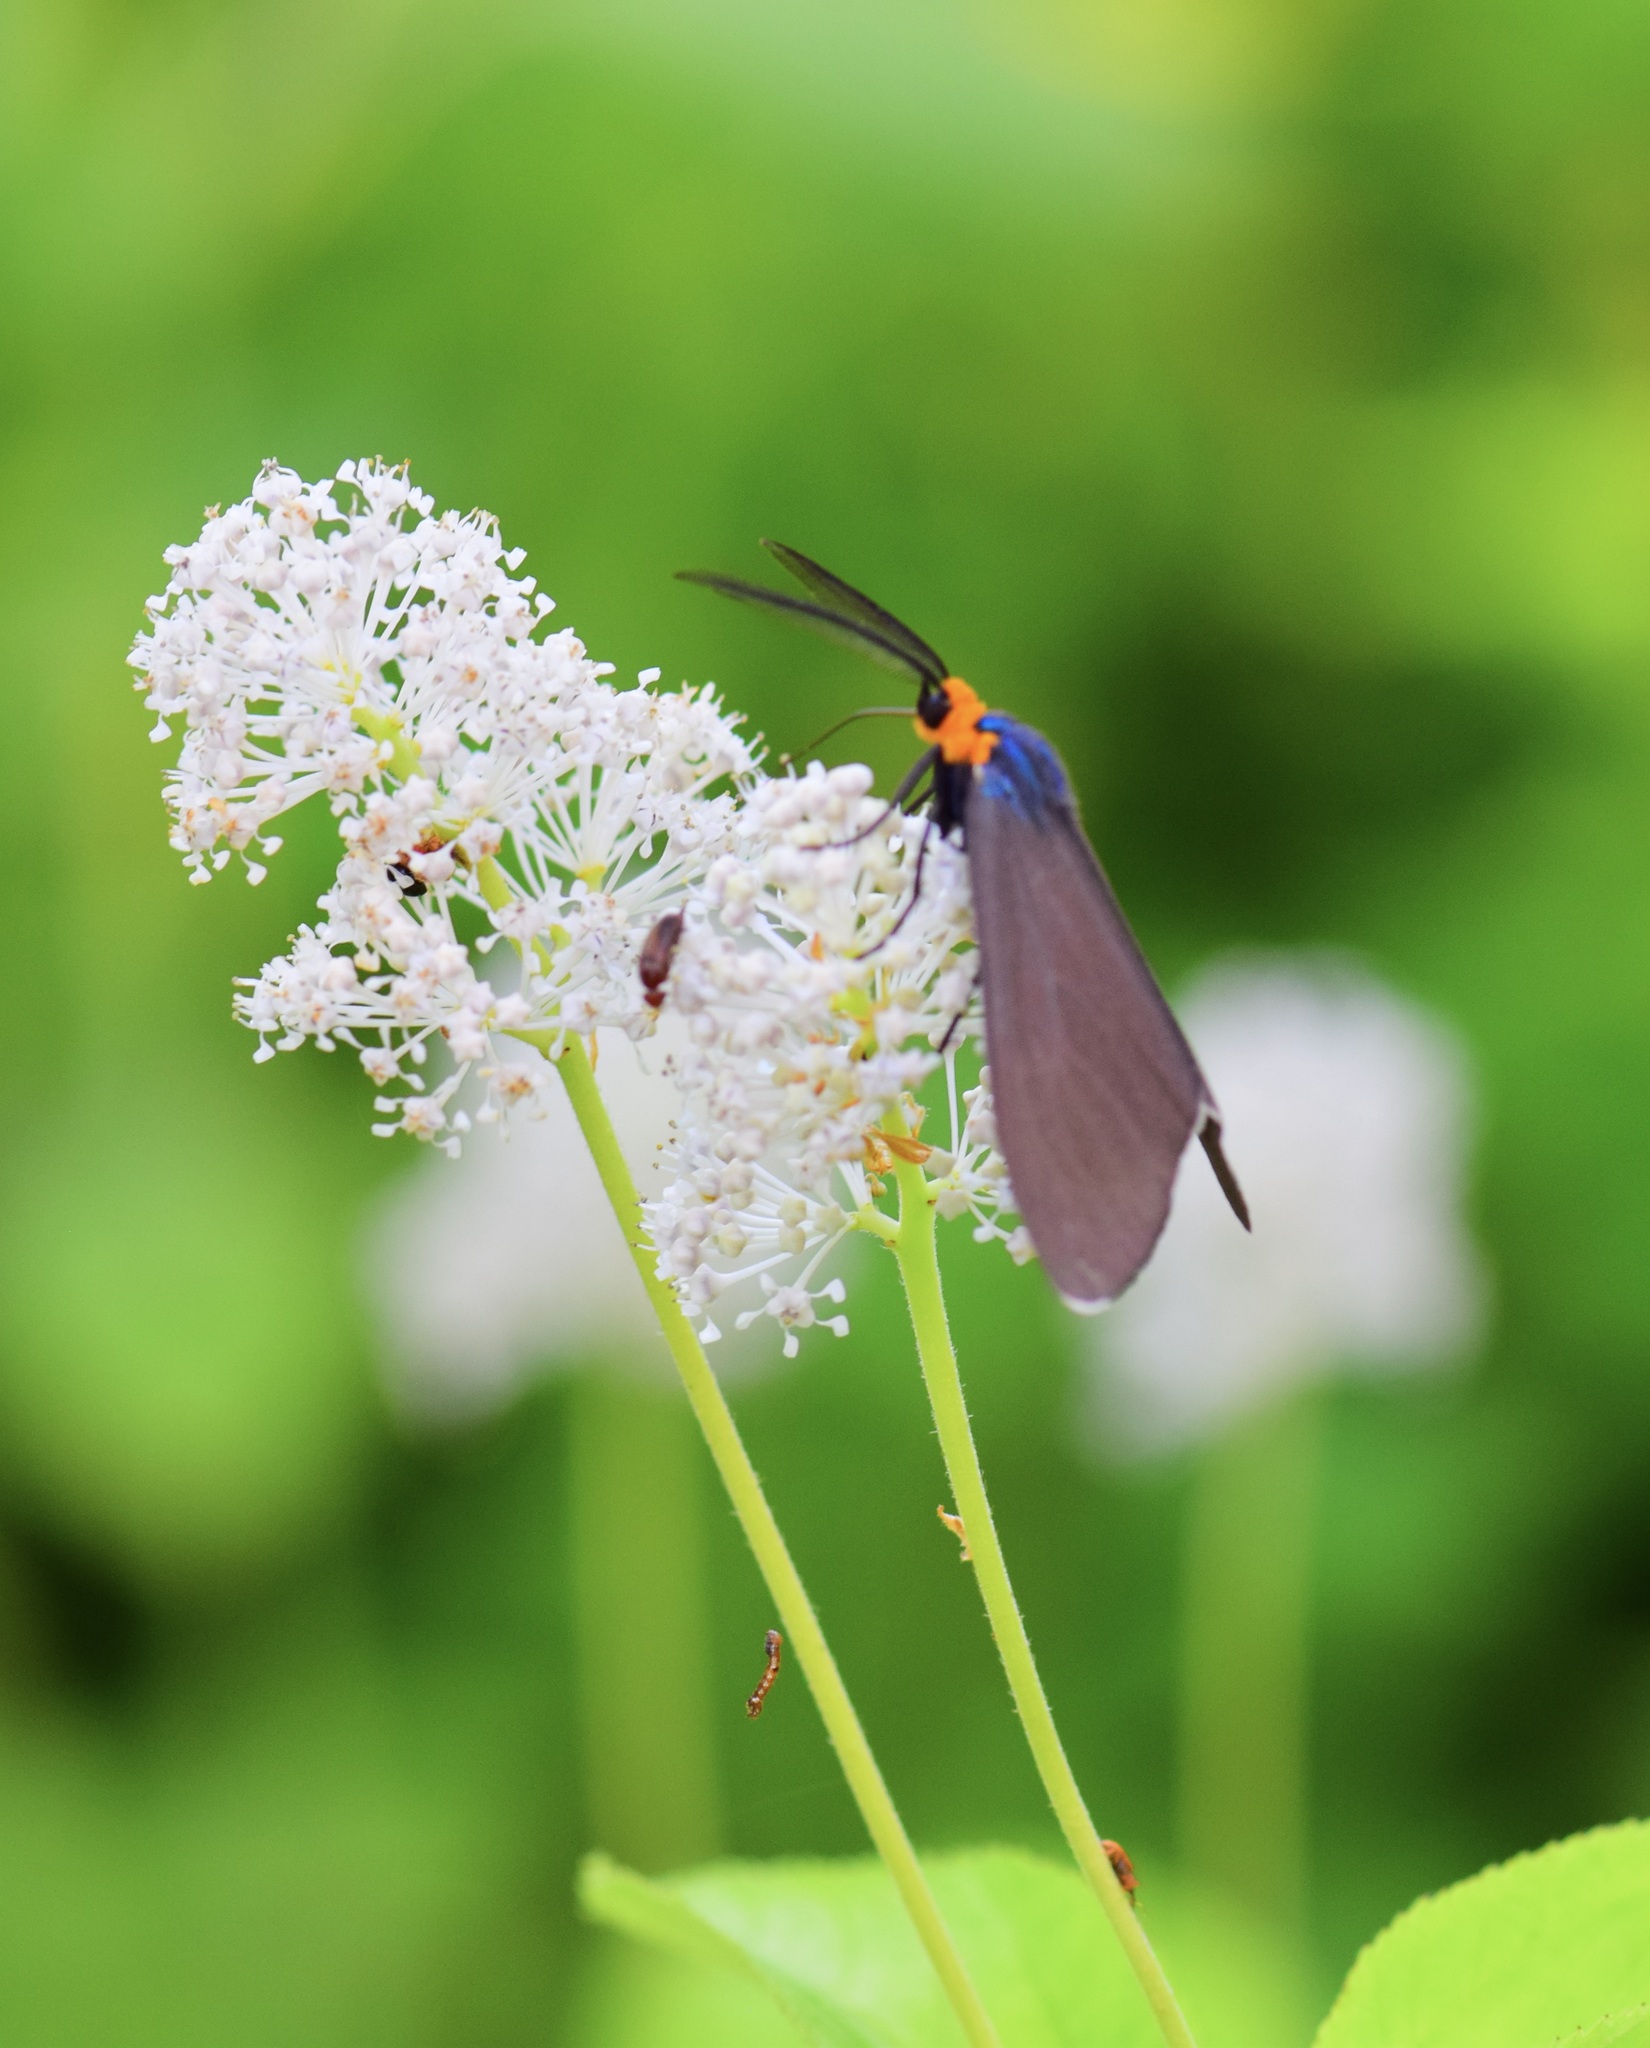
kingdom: Animalia
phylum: Arthropoda
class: Insecta
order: Lepidoptera
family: Erebidae
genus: Ctenucha
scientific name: Ctenucha virginica
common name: Virginia ctenucha moth
